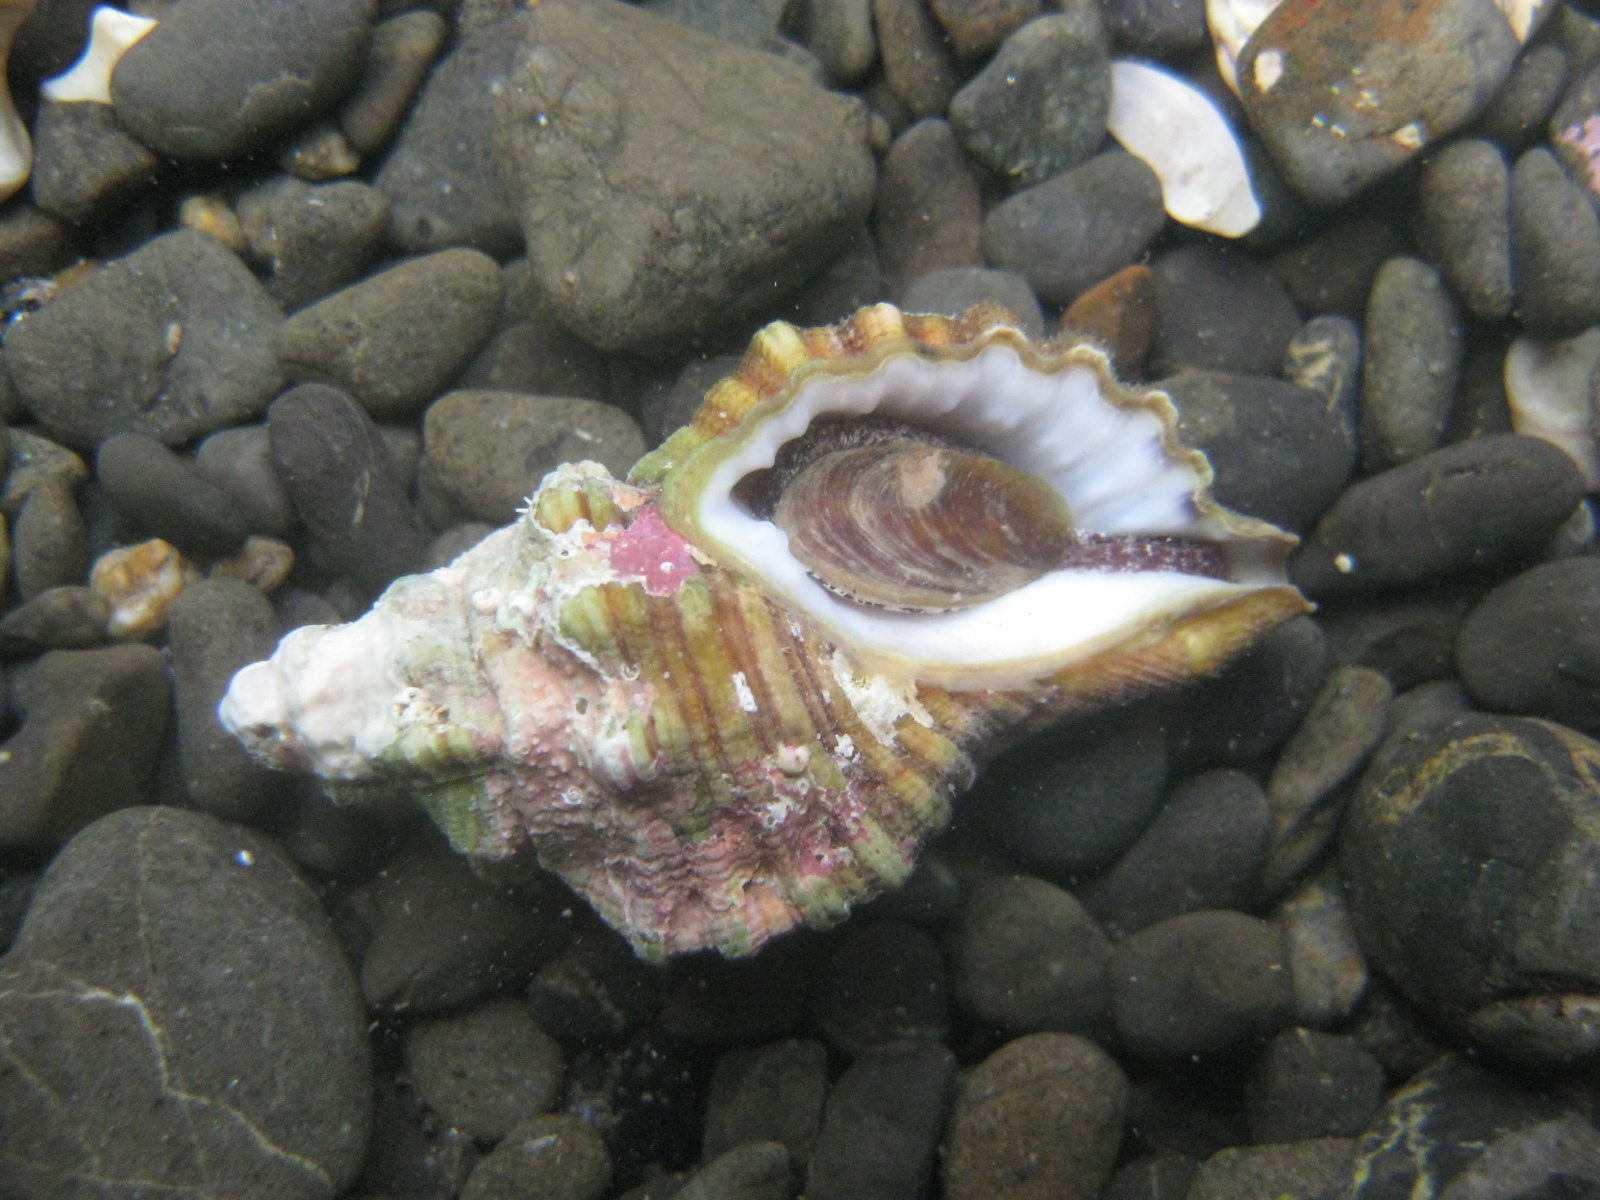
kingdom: Animalia
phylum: Mollusca
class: Gastropoda
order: Littorinimorpha
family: Cymatiidae
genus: Cabestana
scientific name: Cabestana spengleri
